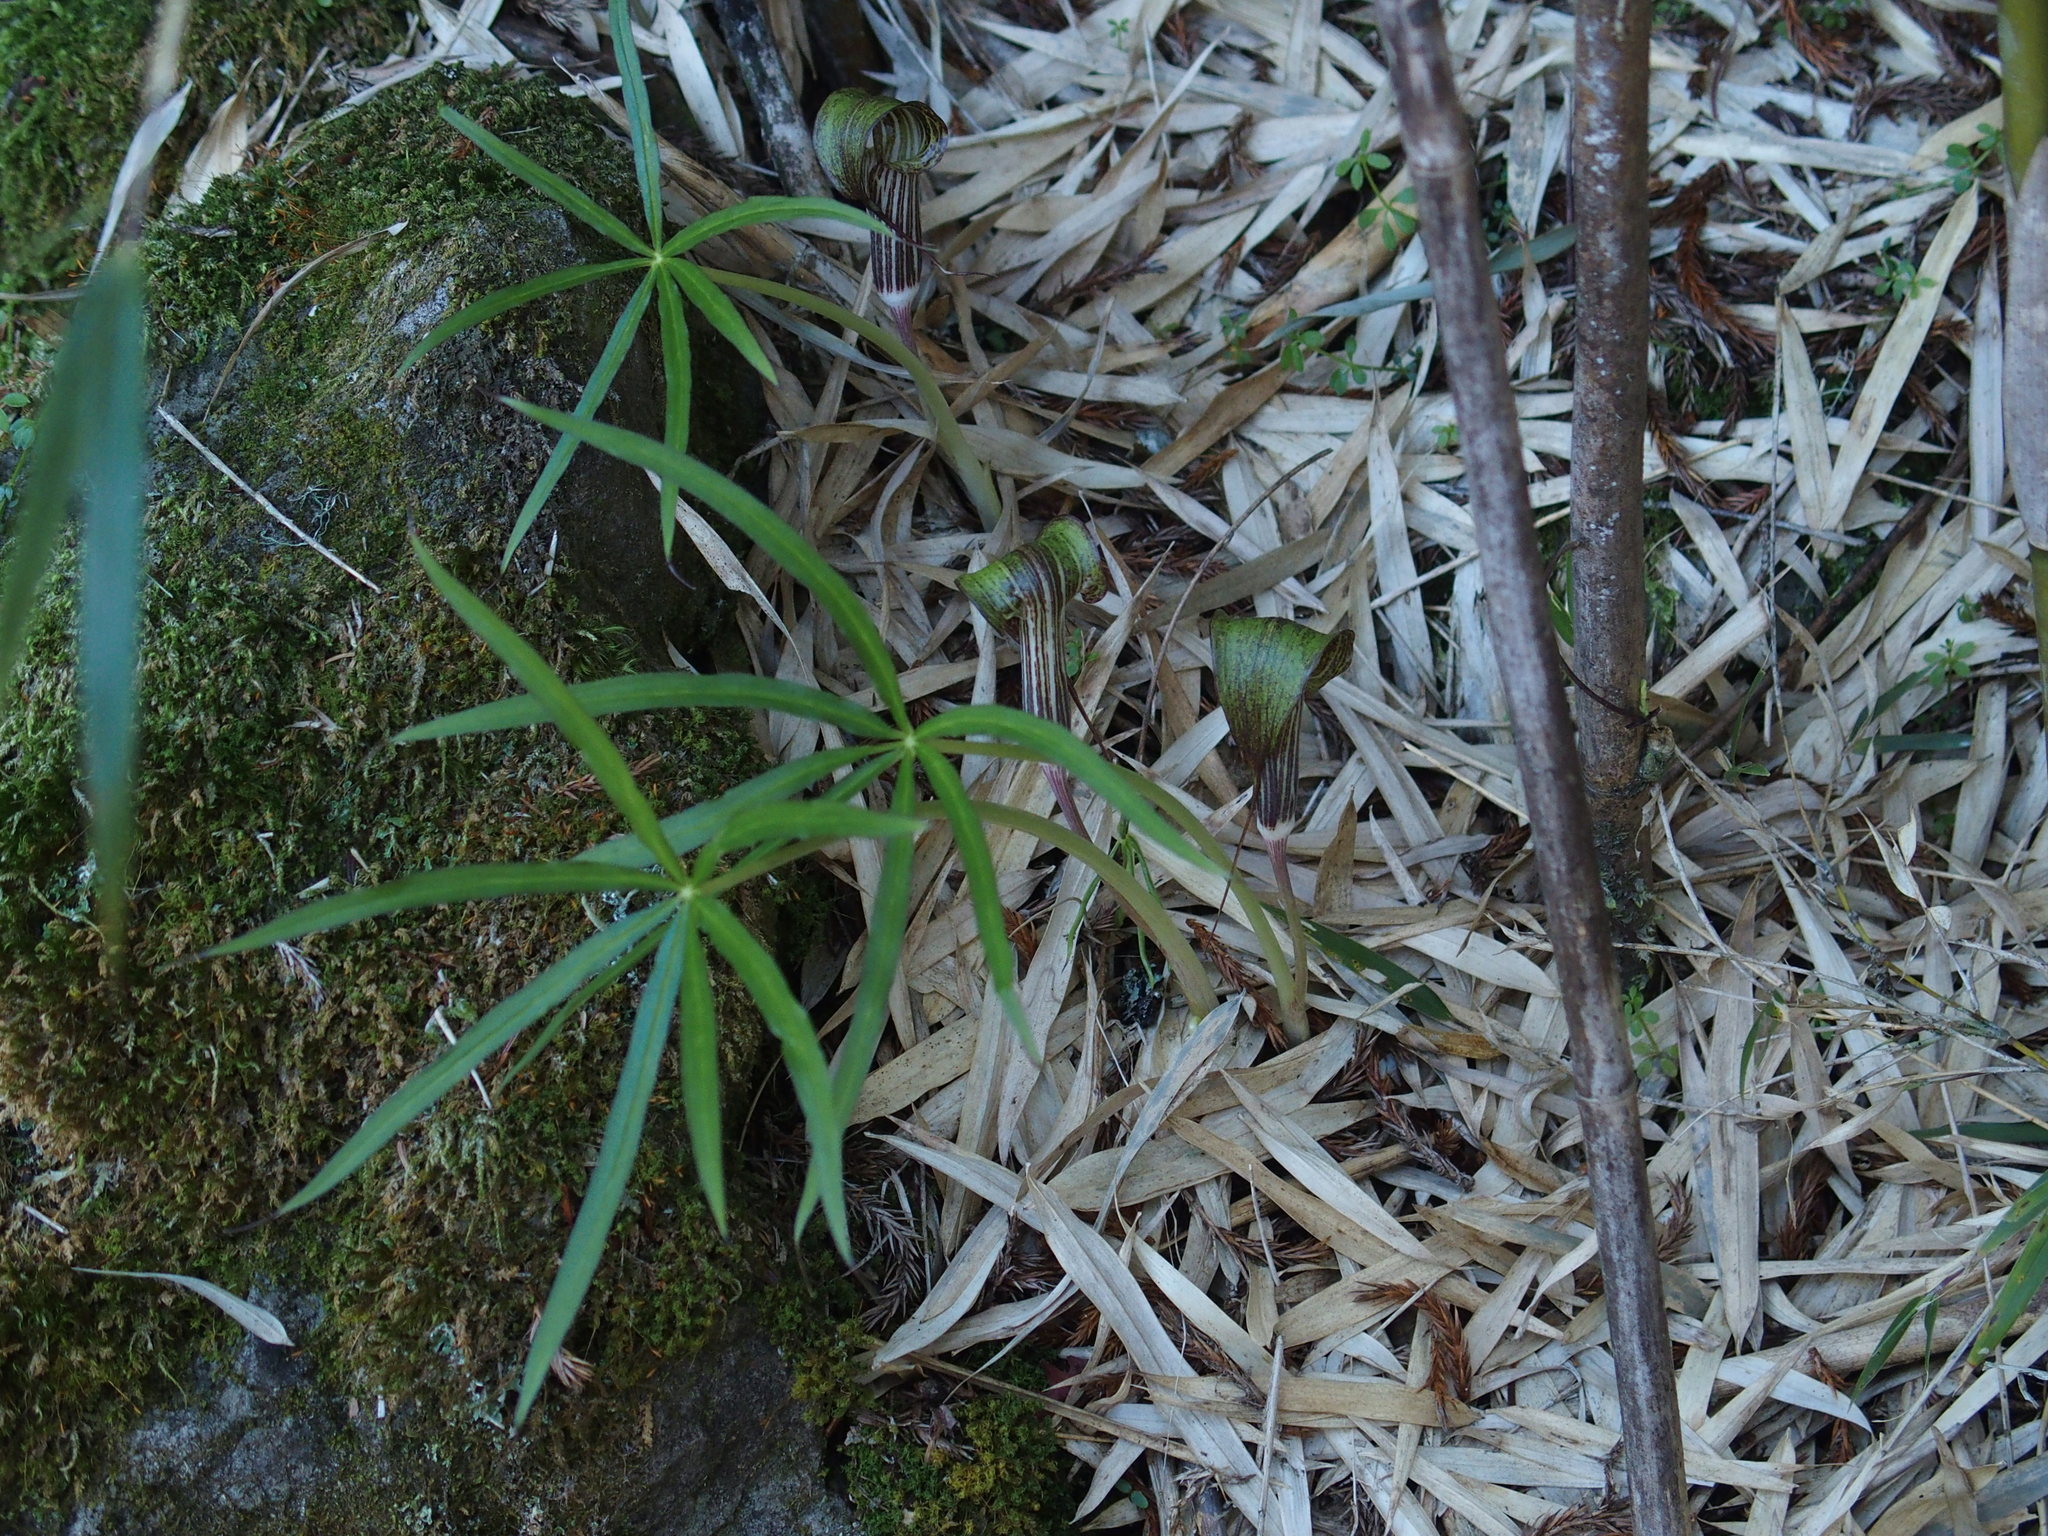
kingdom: Plantae
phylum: Tracheophyta
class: Liliopsida
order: Alismatales
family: Araceae
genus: Arisaema
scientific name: Arisaema consanguineum
